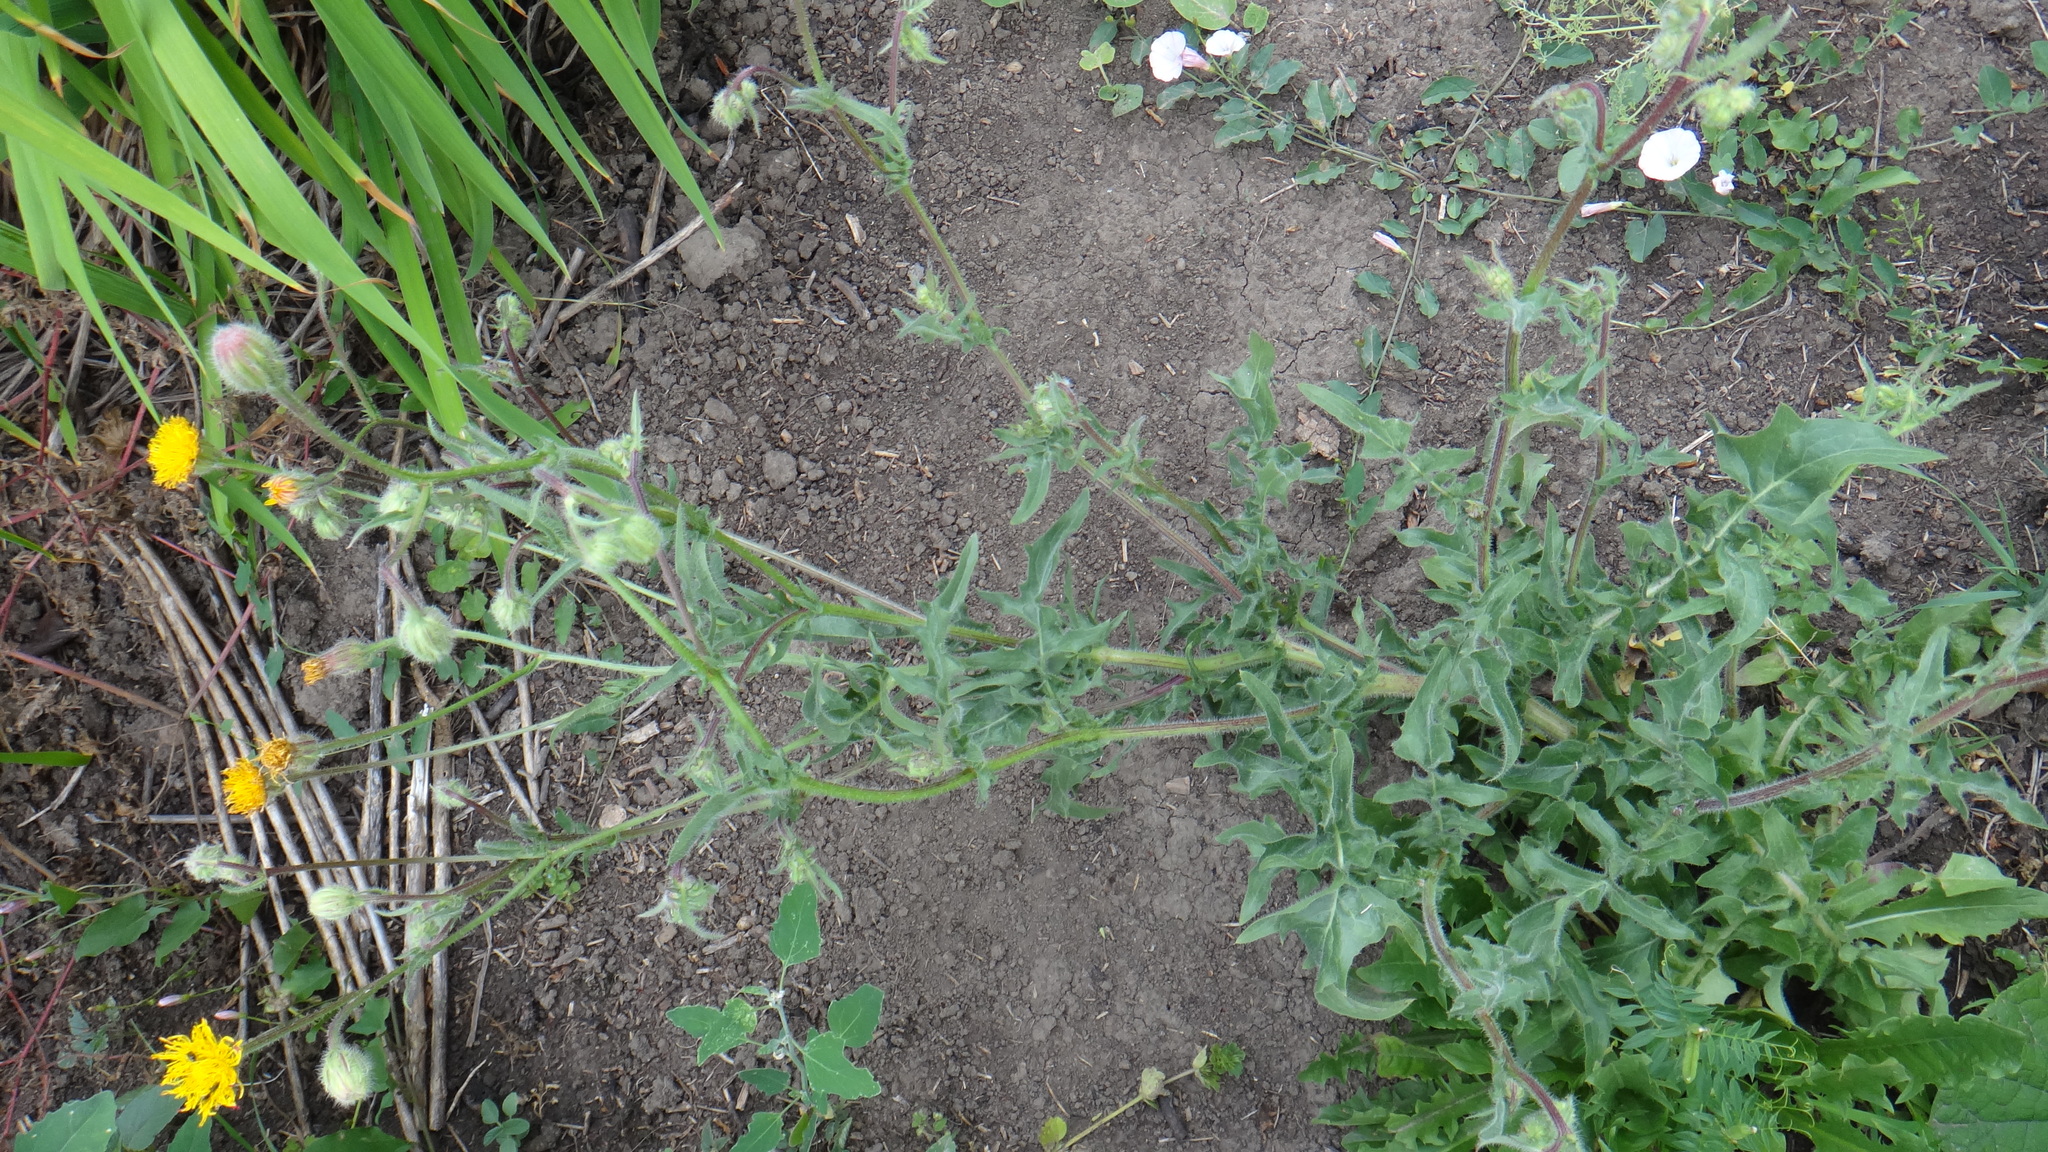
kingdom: Plantae
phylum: Tracheophyta
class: Magnoliopsida
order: Asterales
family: Asteraceae
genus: Crepis
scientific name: Crepis foetida
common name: Stinking hawk's-beard
